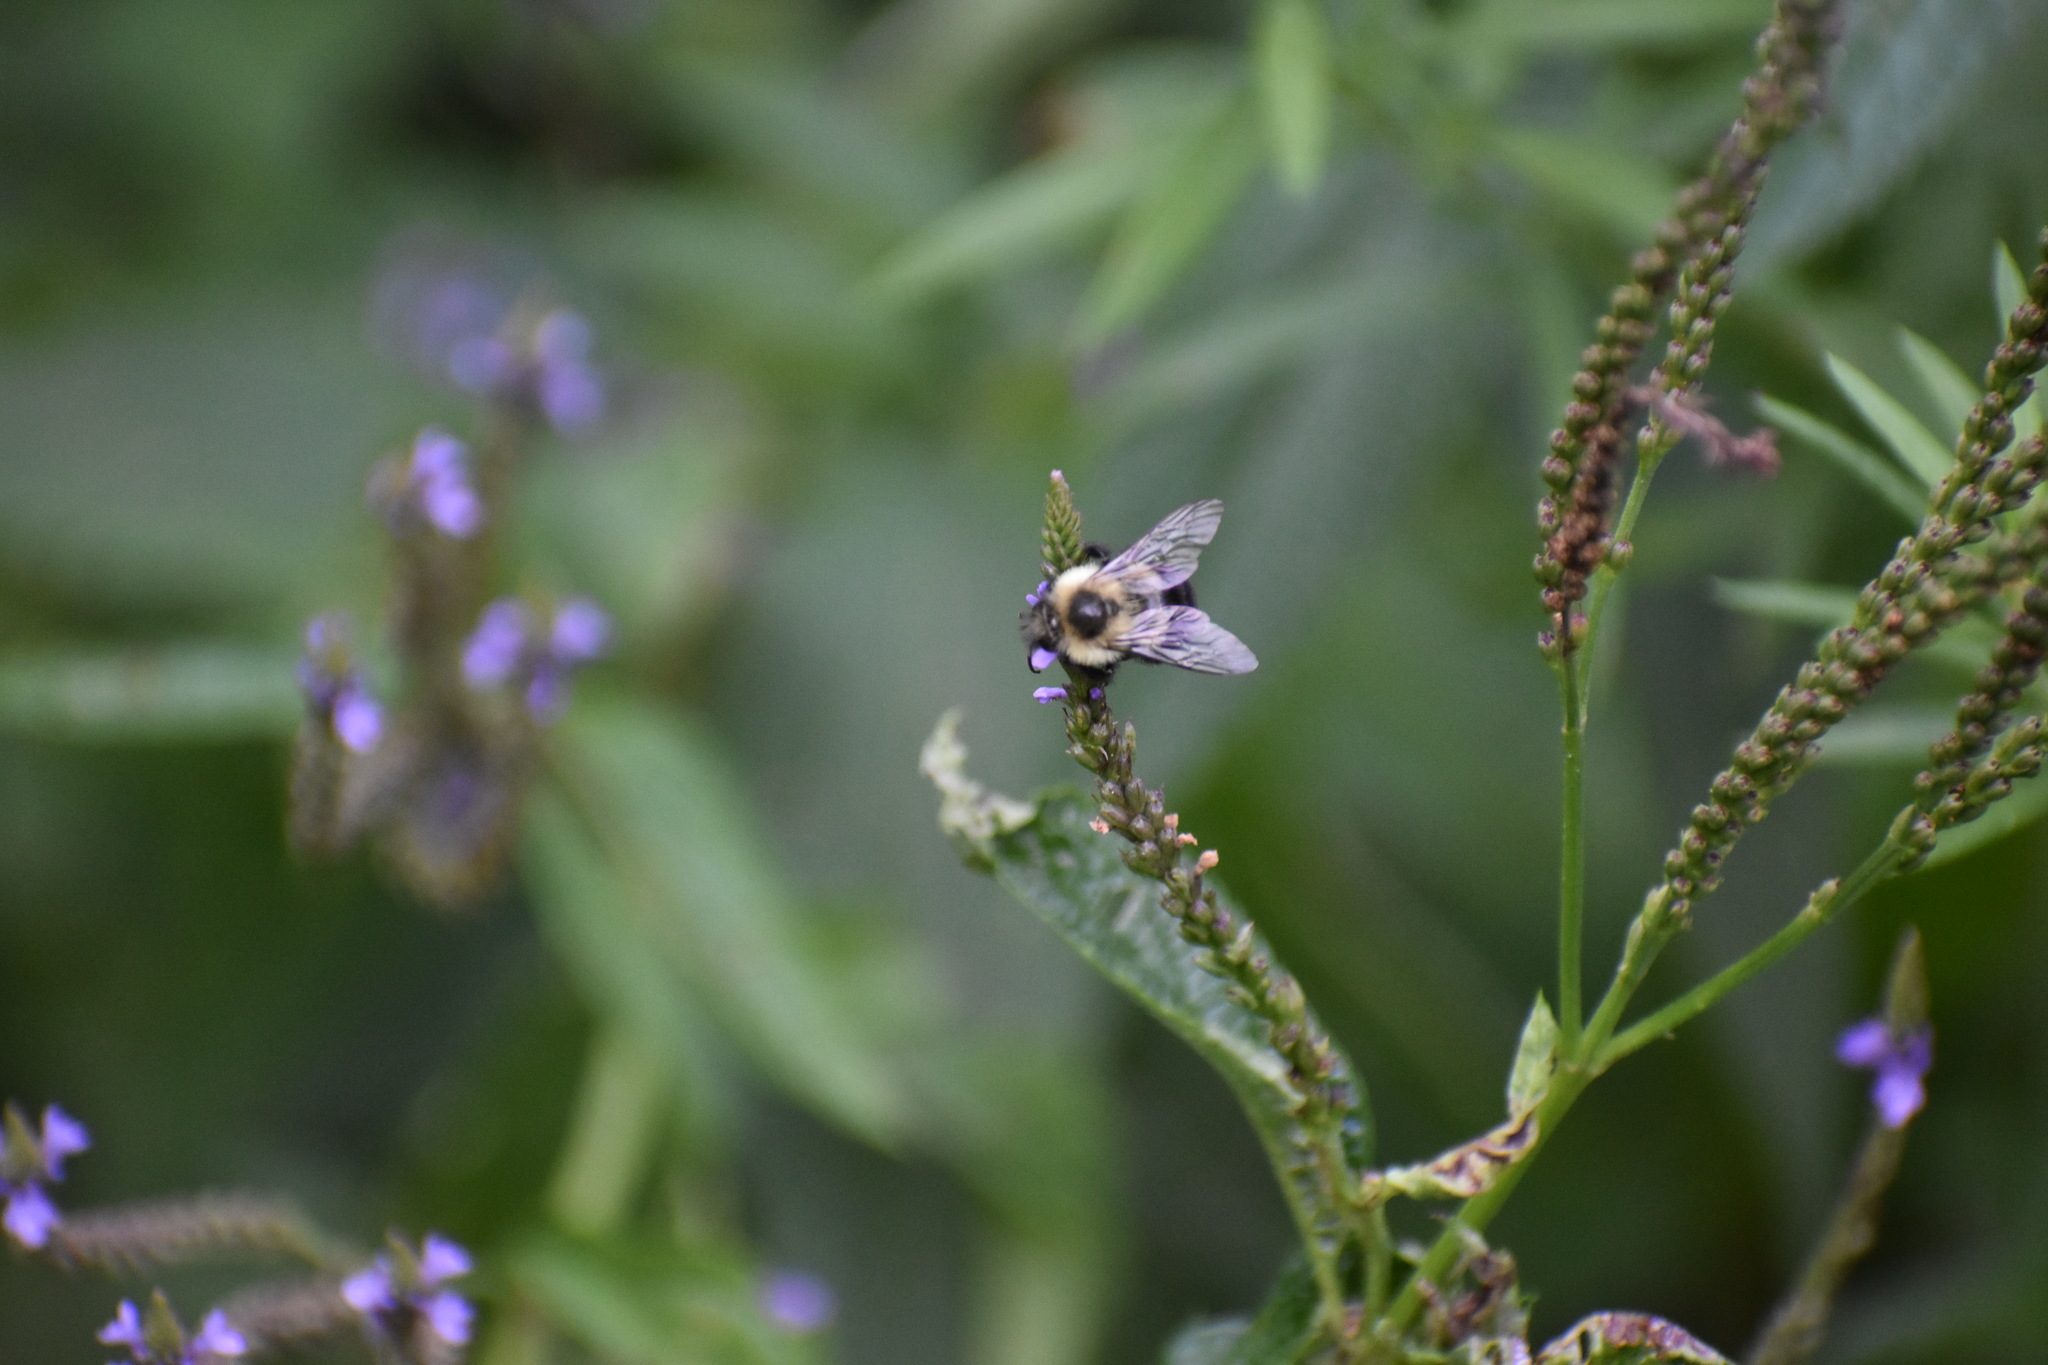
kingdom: Animalia
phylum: Arthropoda
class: Insecta
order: Hymenoptera
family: Apidae
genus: Bombus
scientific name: Bombus impatiens
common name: Common eastern bumble bee
